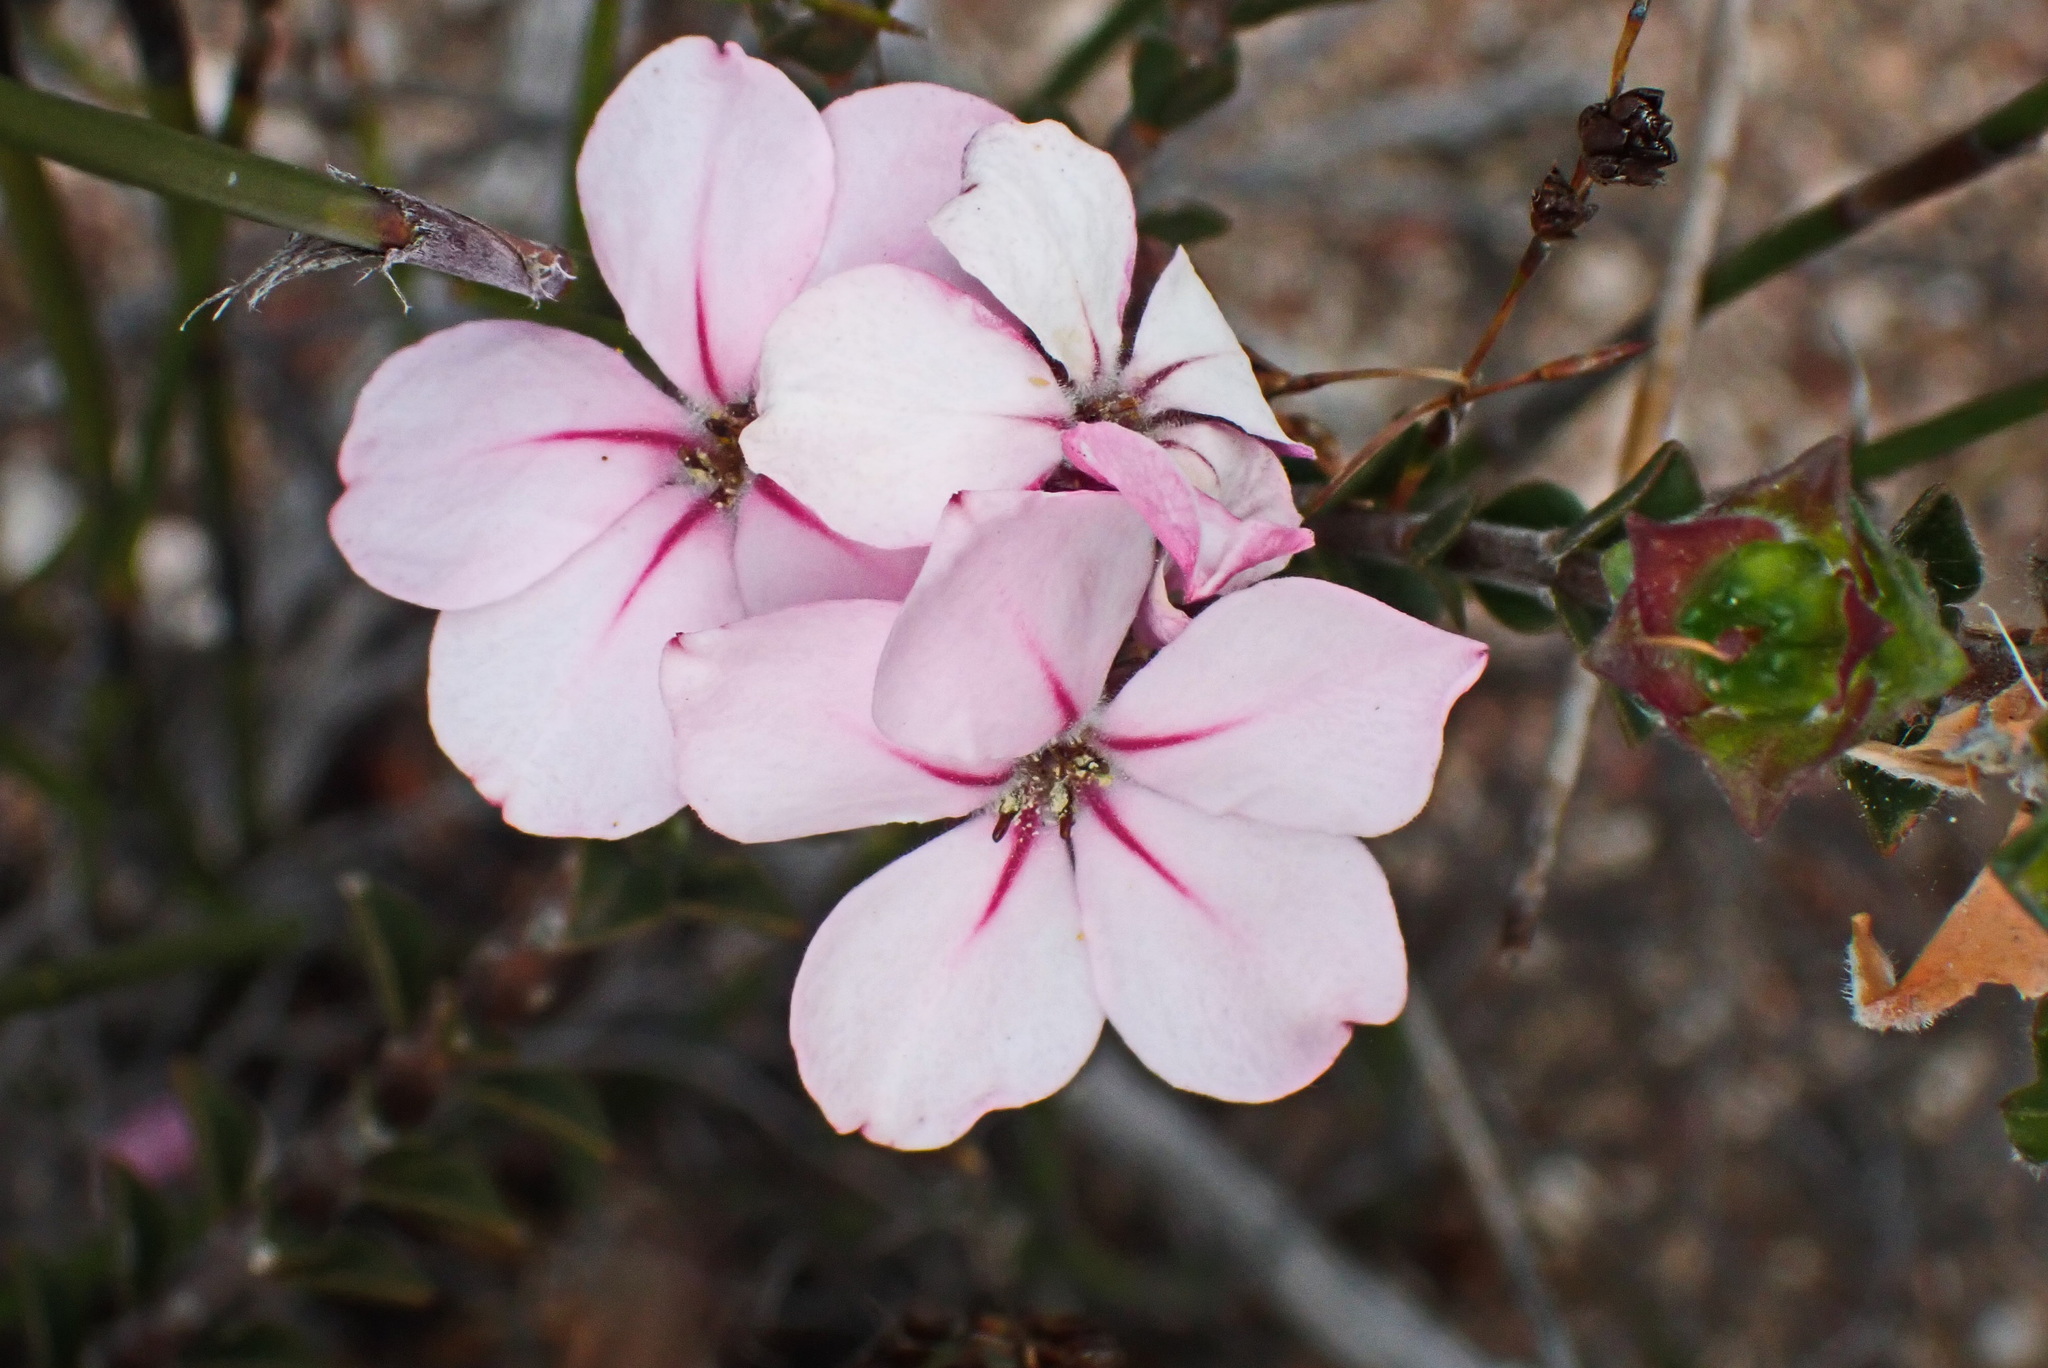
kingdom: Plantae
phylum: Tracheophyta
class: Magnoliopsida
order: Sapindales
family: Rutaceae
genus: Acmadenia
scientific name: Acmadenia tetragona
